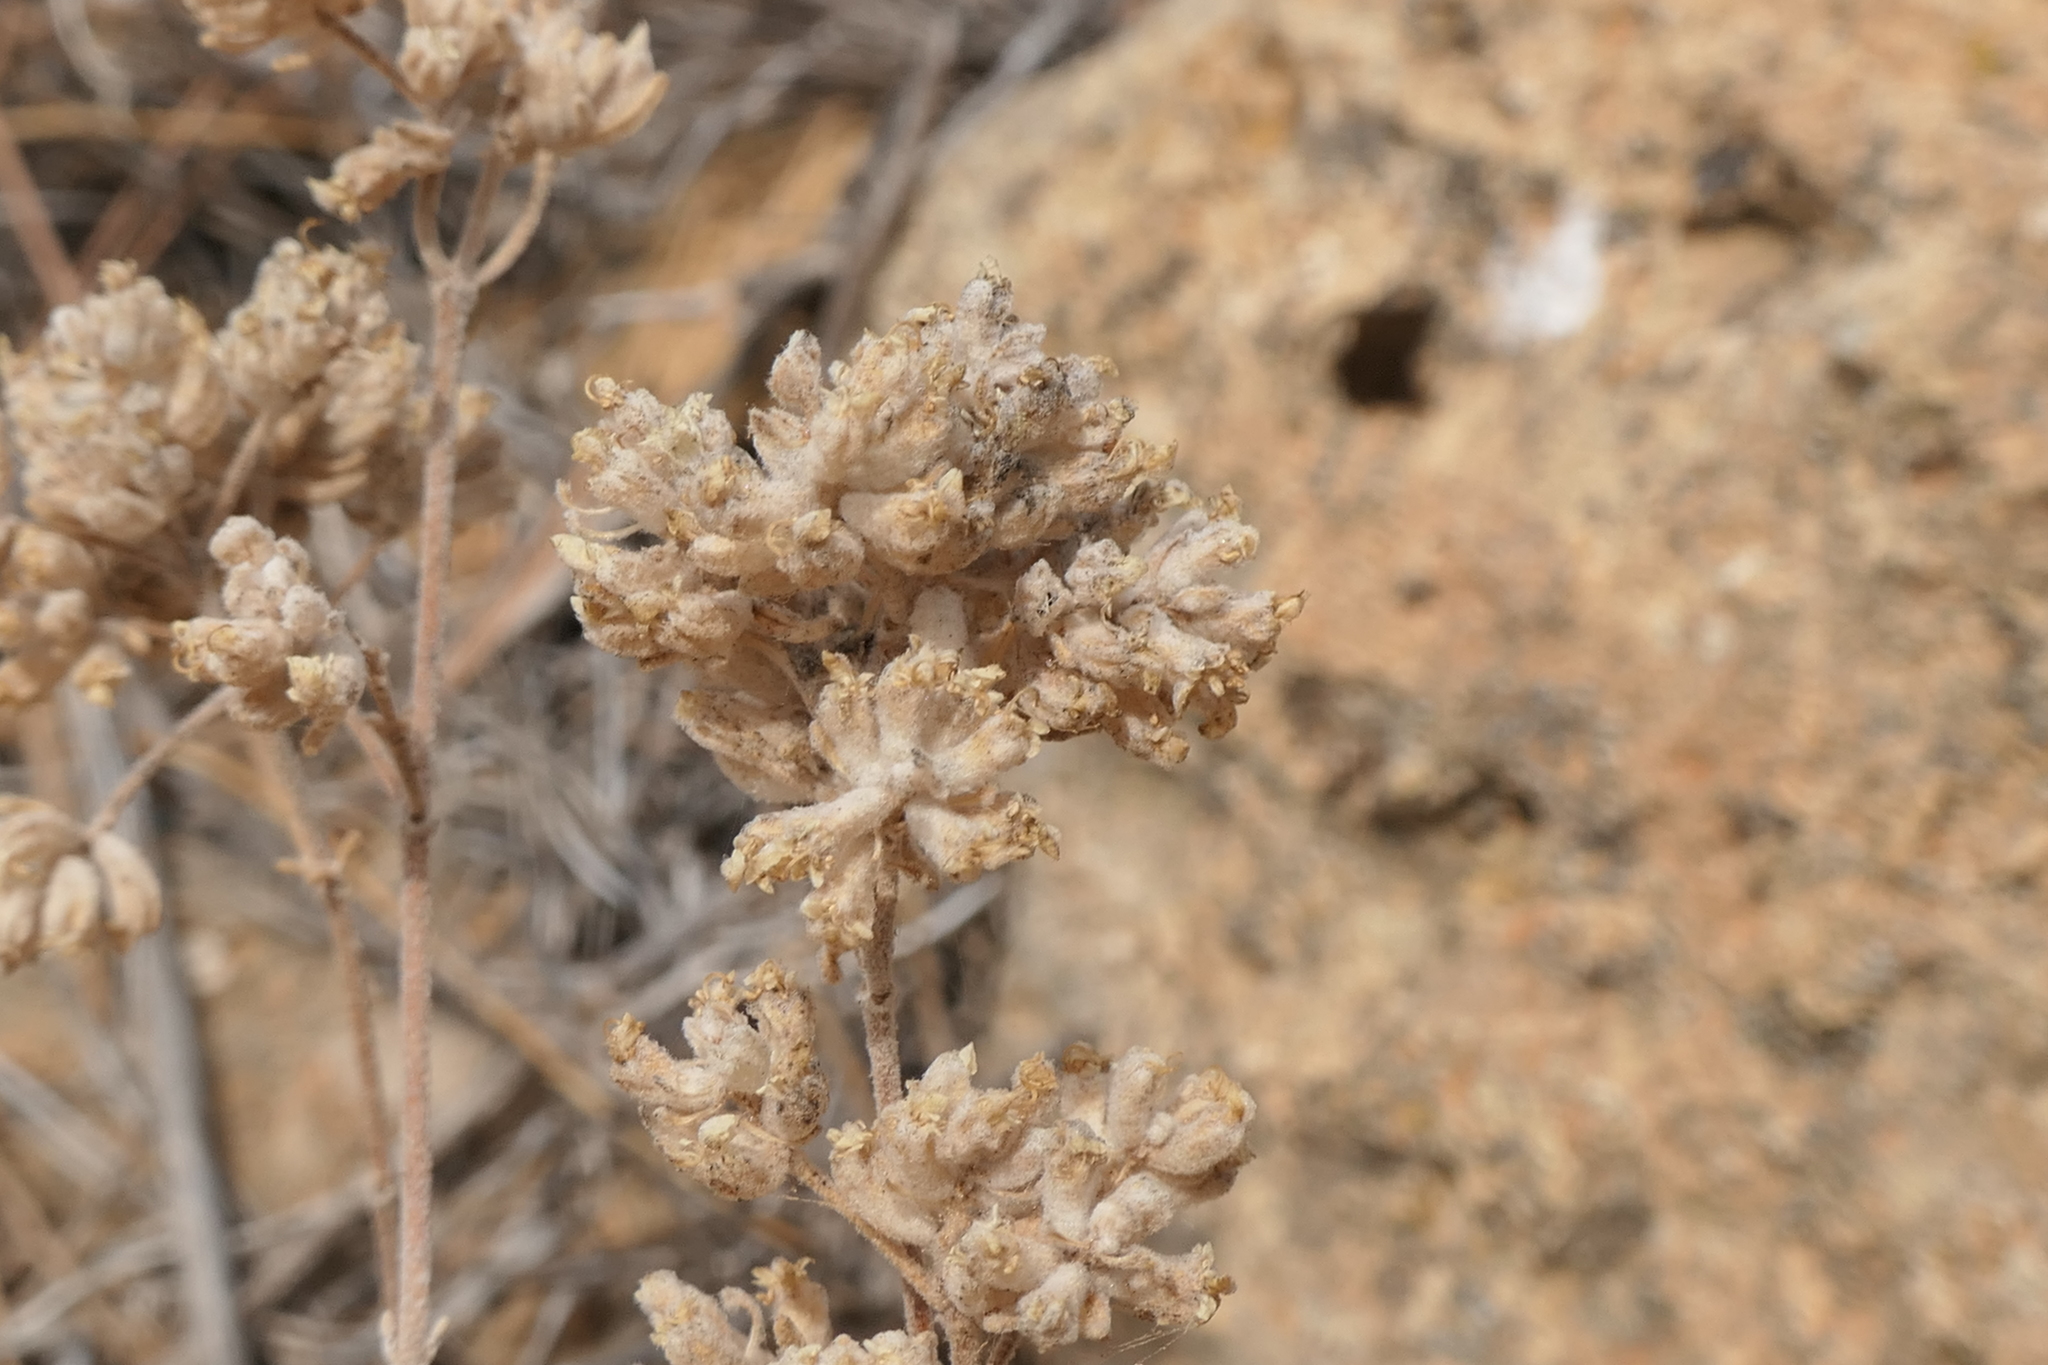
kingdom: Plantae
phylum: Tracheophyta
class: Magnoliopsida
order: Lamiales
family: Lamiaceae
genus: Teucrium
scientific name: Teucrium capitatum
